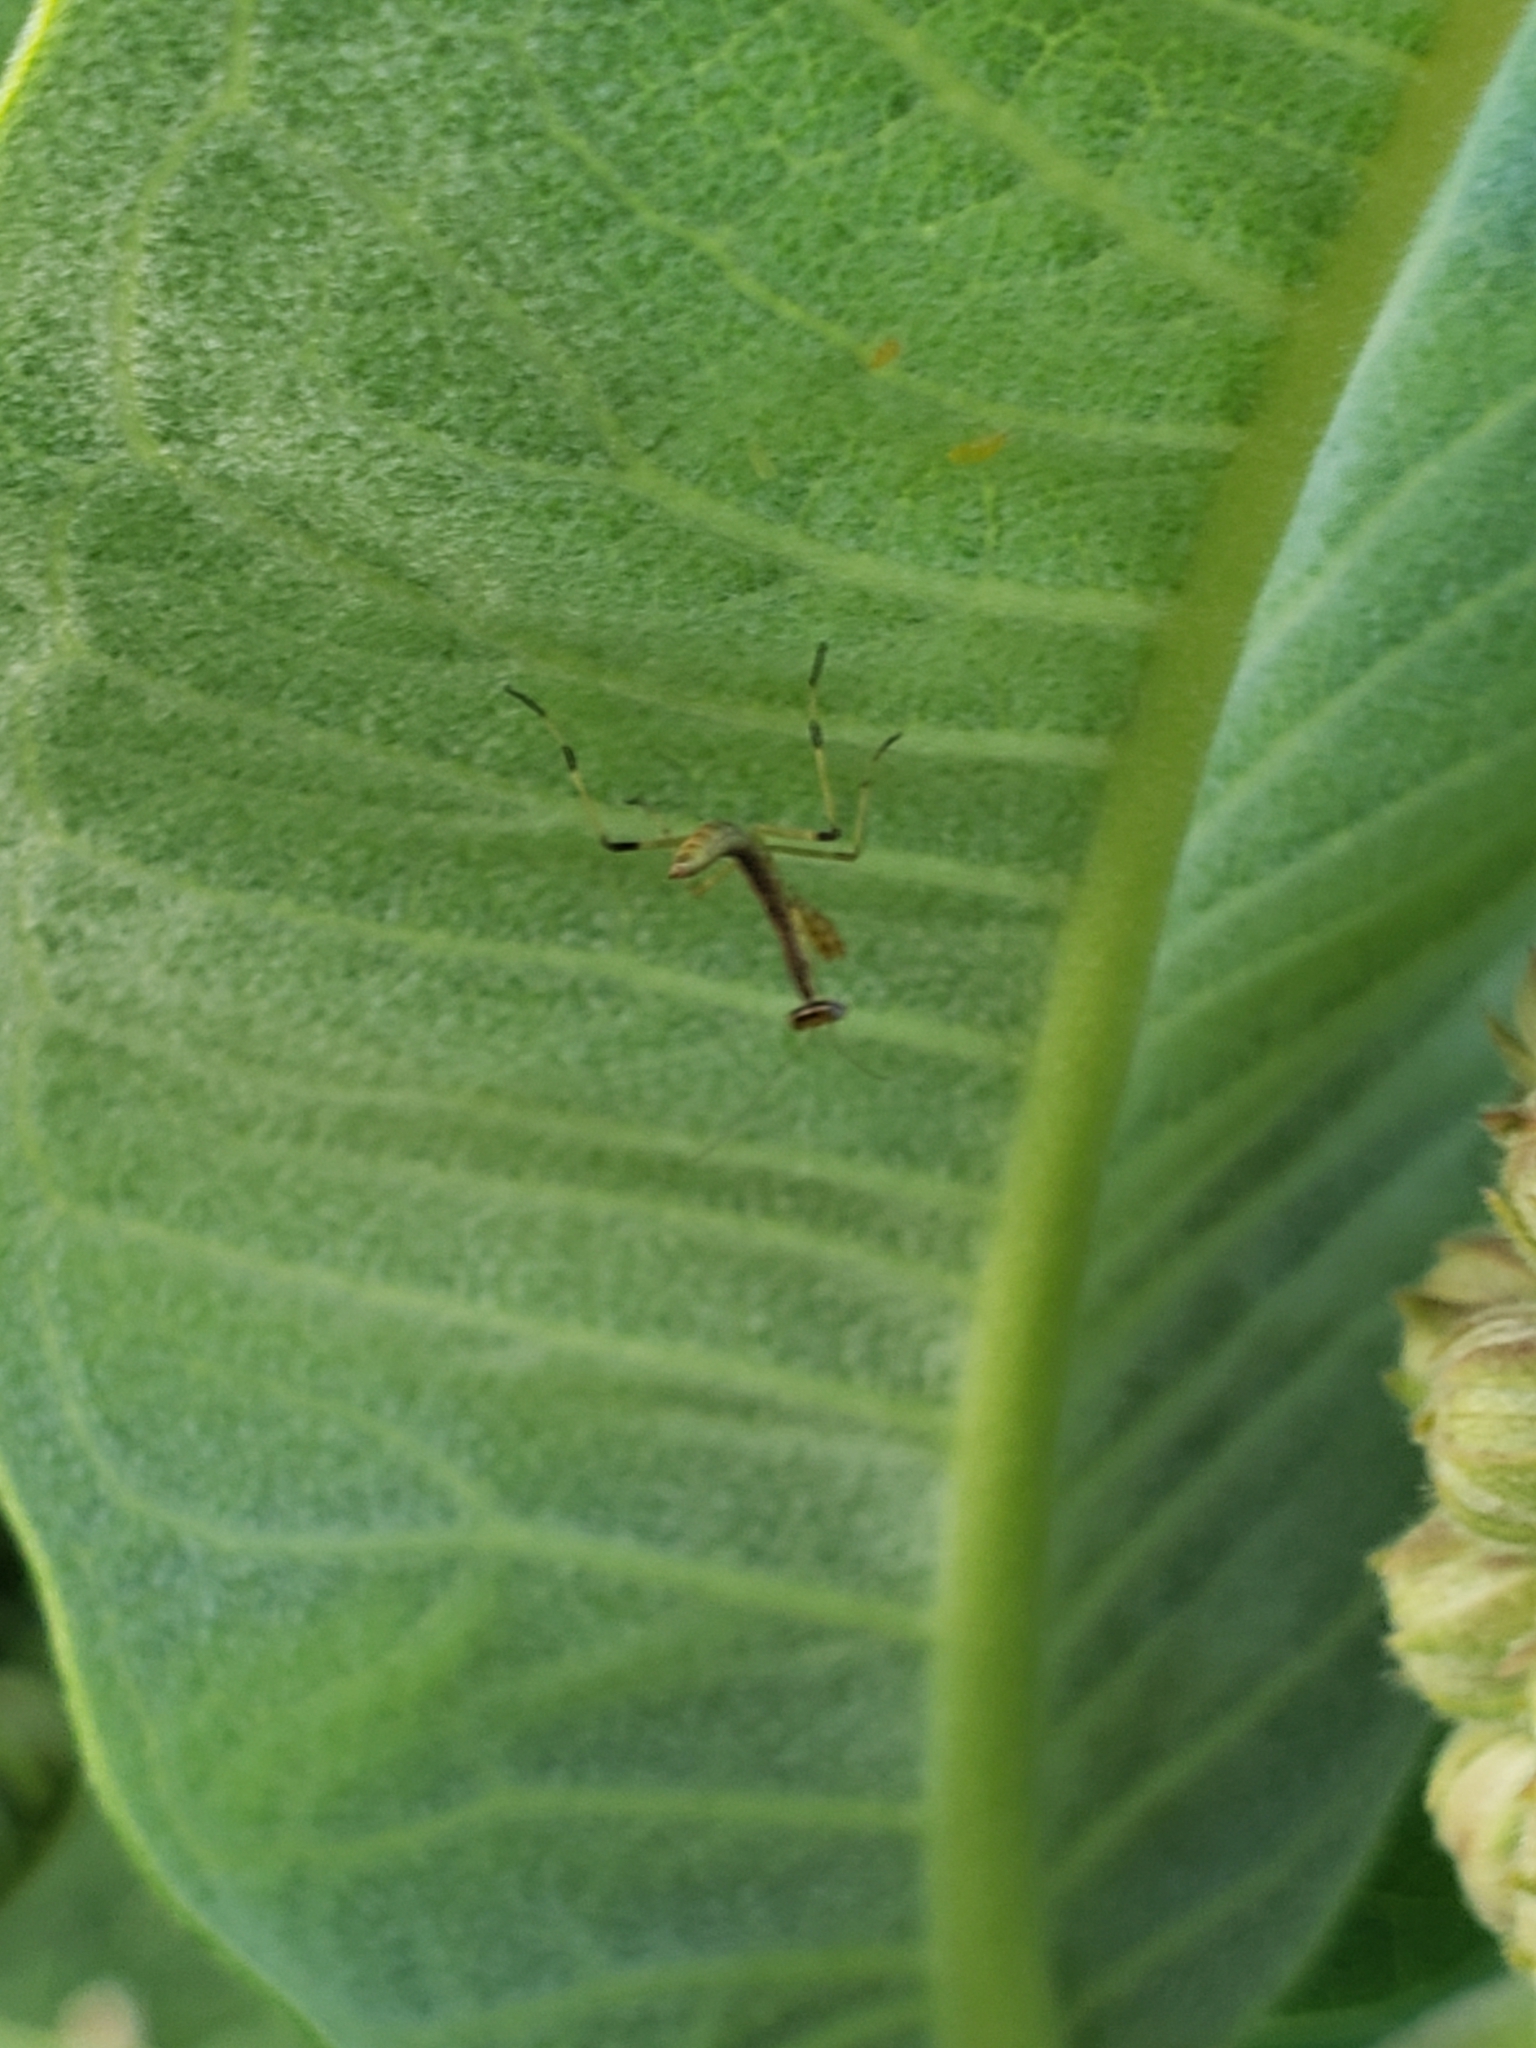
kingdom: Animalia
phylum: Arthropoda
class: Insecta
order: Mantodea
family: Mantidae
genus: Stagmomantis
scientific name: Stagmomantis carolina
